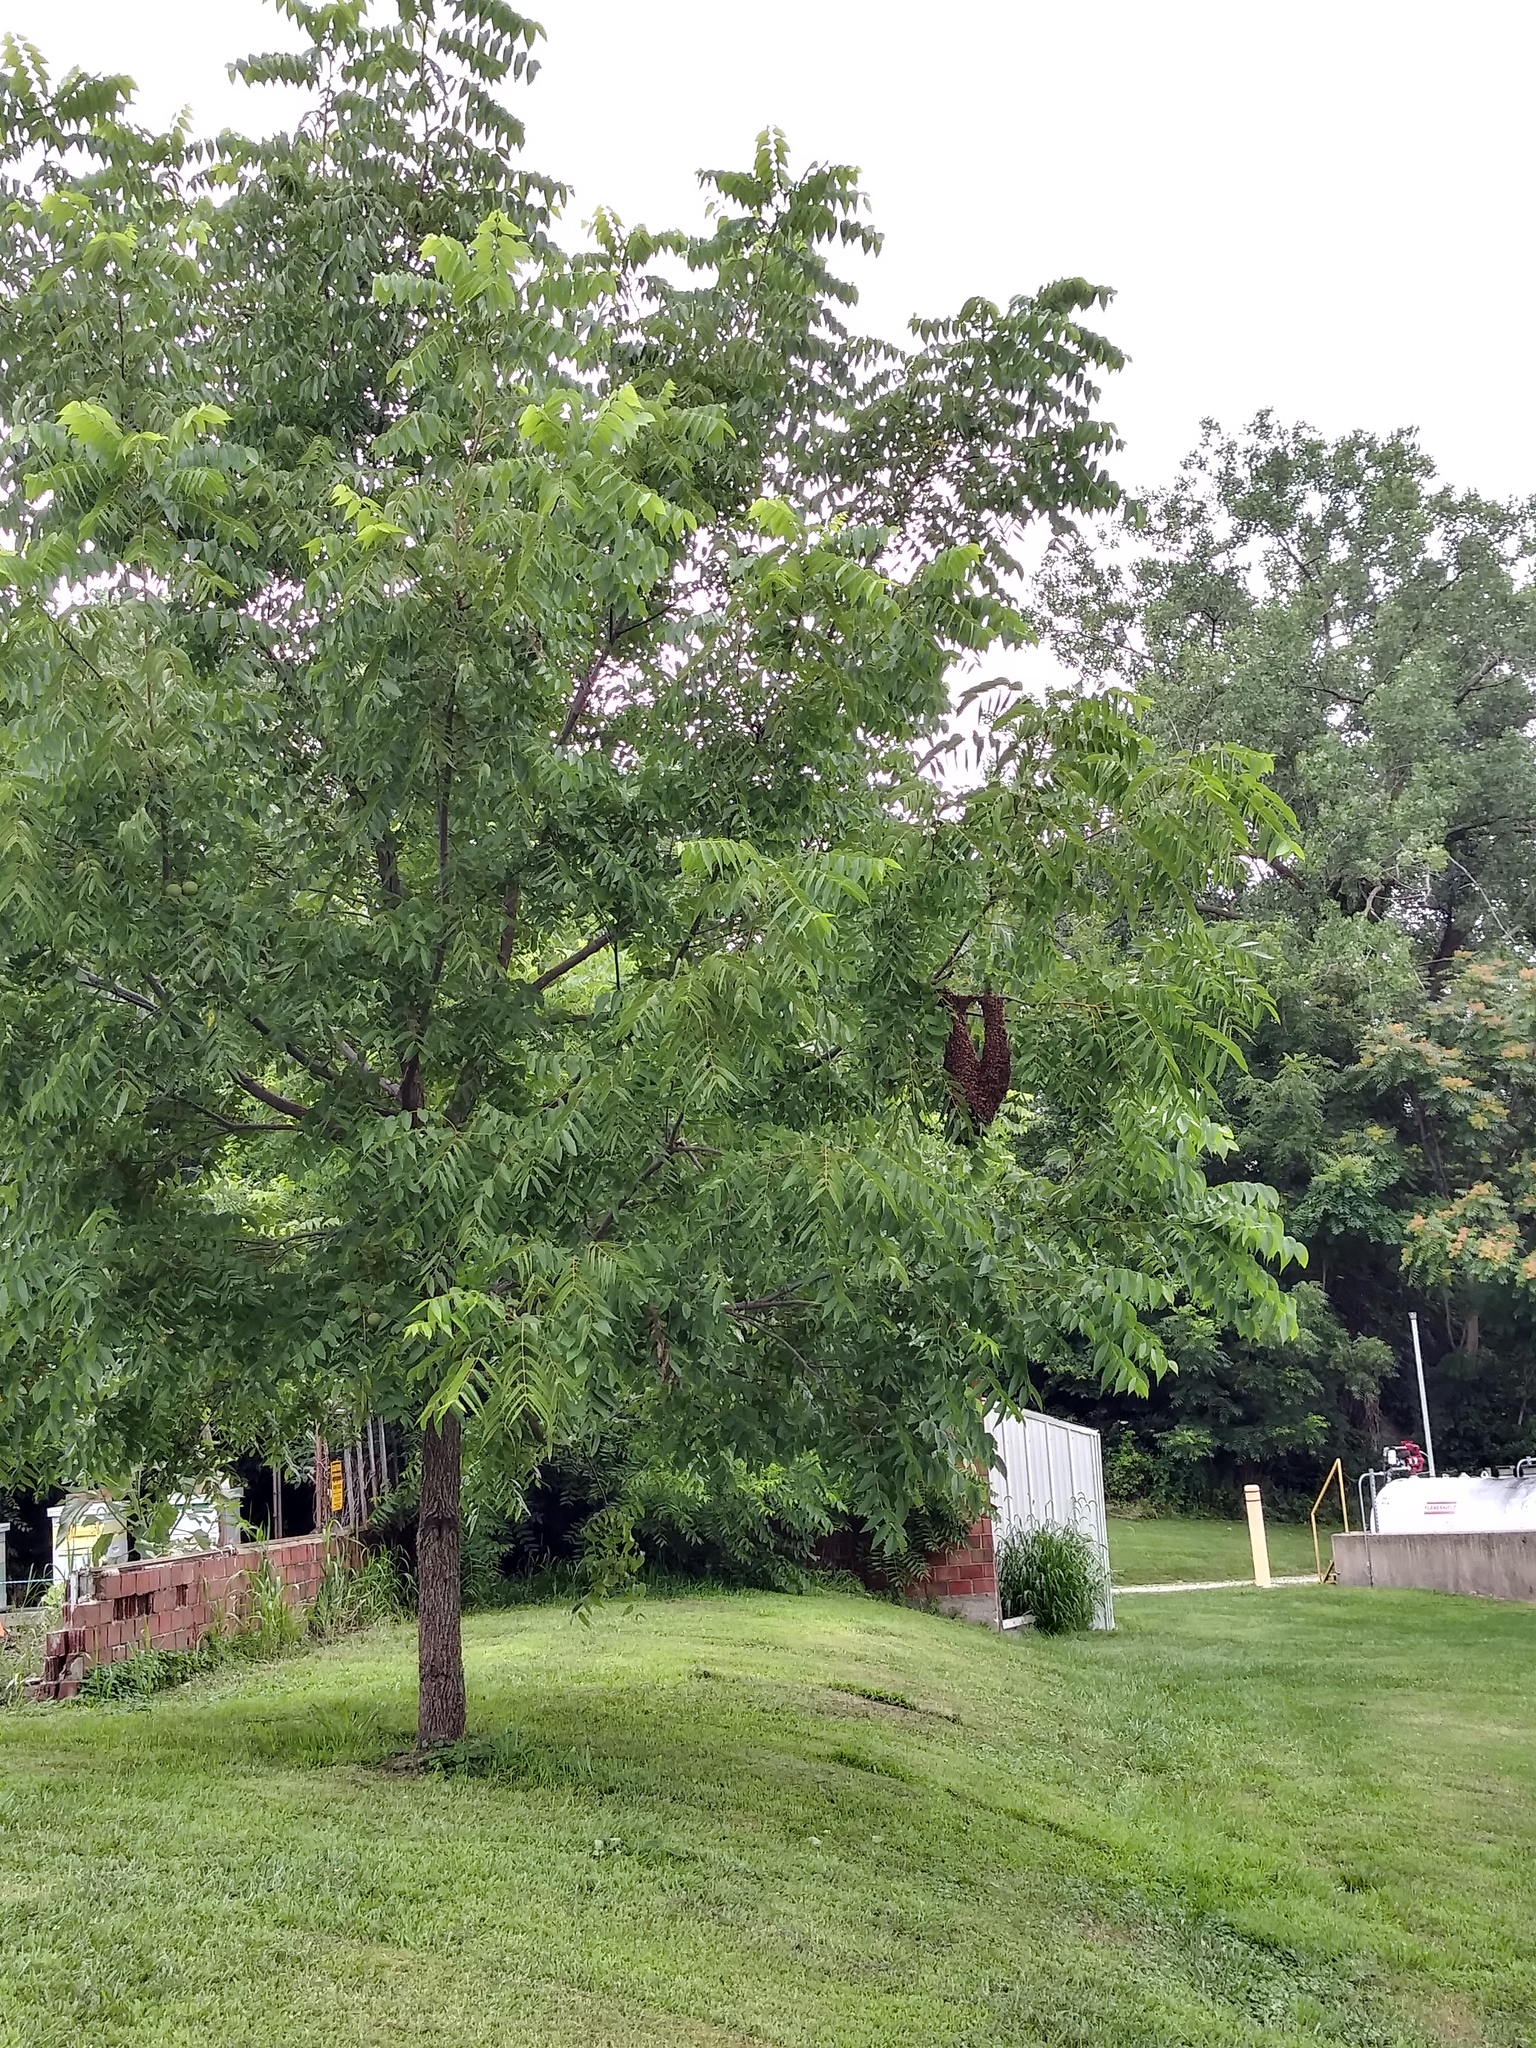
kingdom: Animalia
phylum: Arthropoda
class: Insecta
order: Hymenoptera
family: Apidae
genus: Apis
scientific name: Apis mellifera
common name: Honey bee
